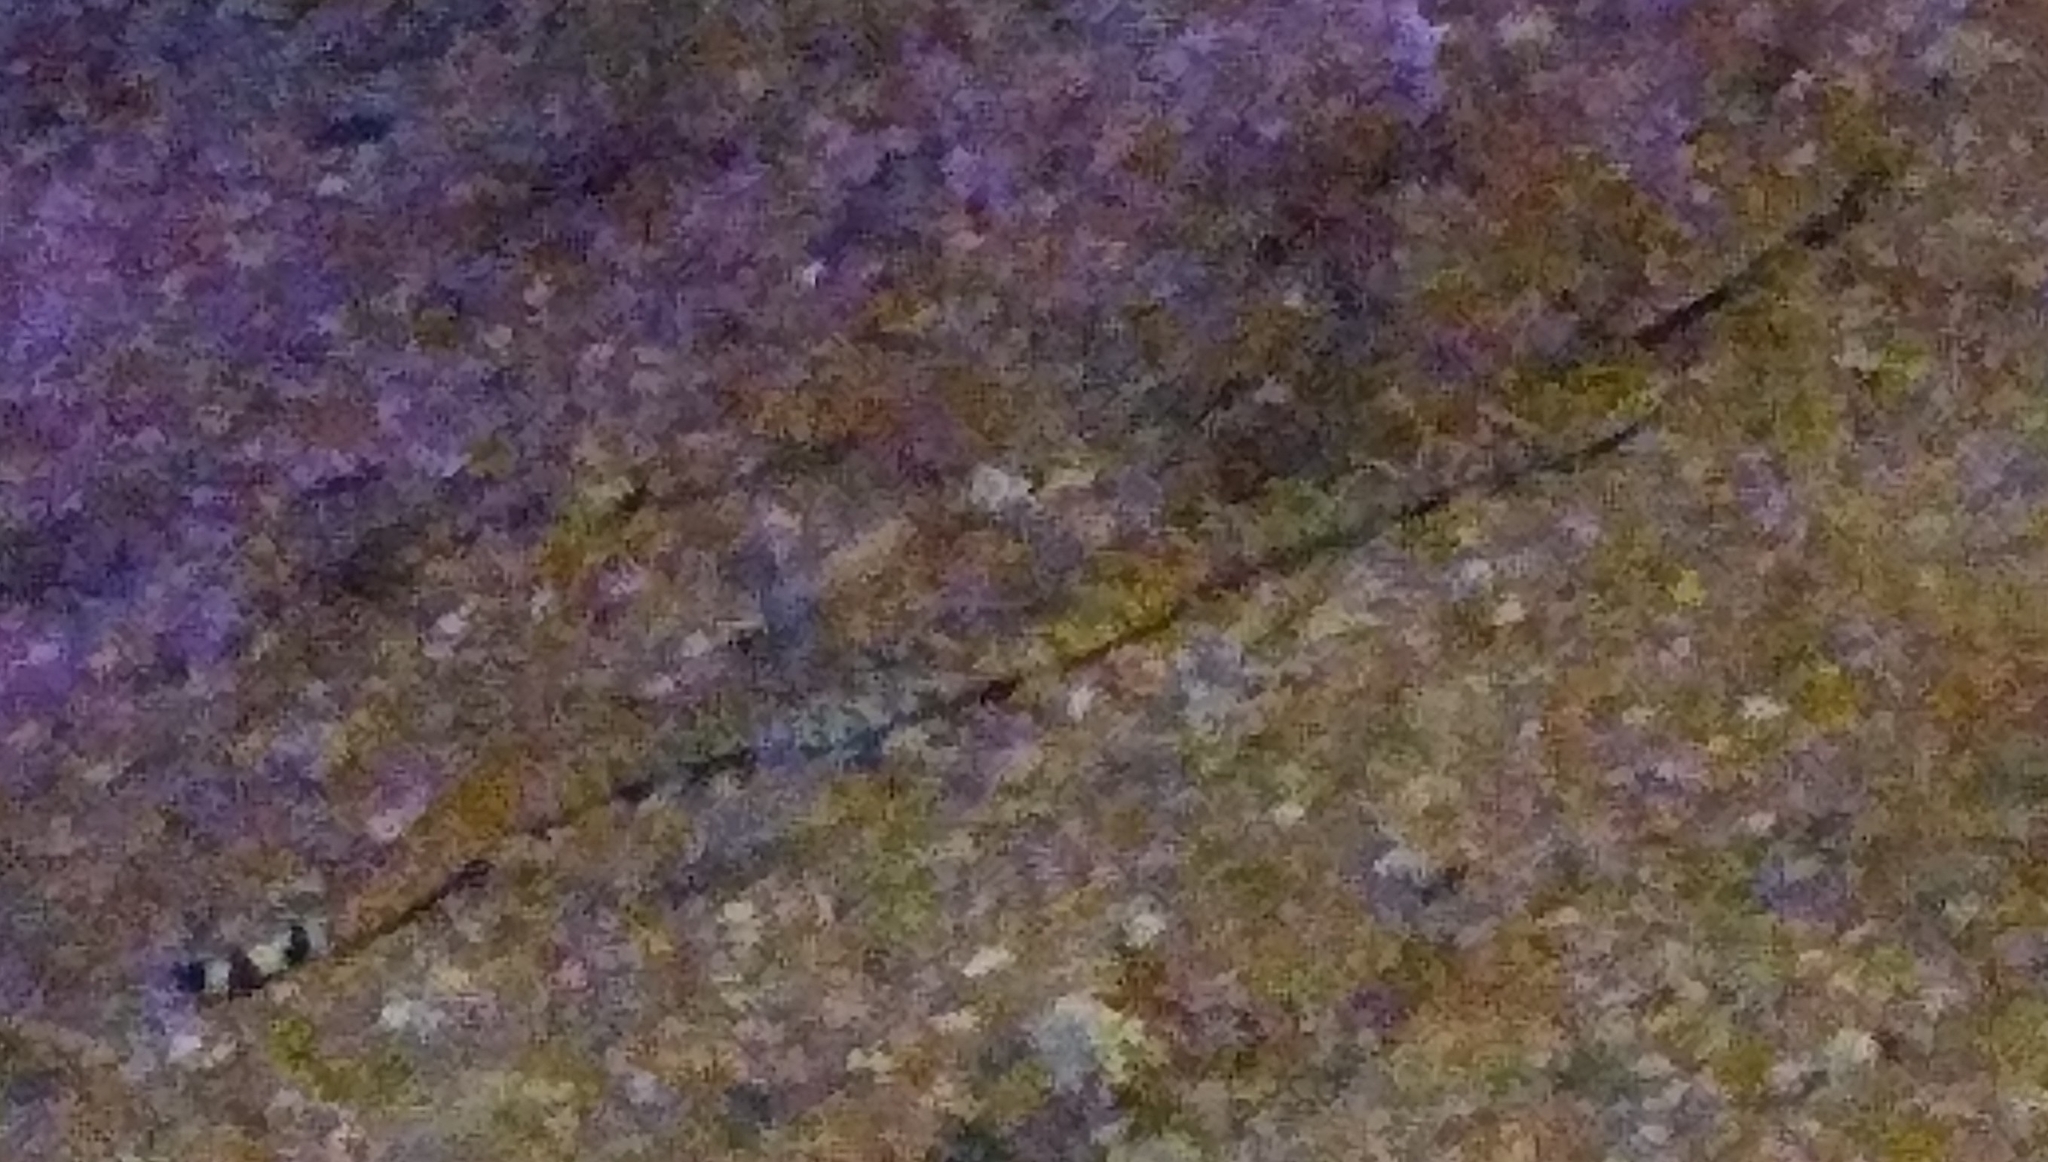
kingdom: Animalia
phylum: Chordata
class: Squamata
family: Viperidae
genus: Crotalus
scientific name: Crotalus atrox
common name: Western diamond-backed rattlesnake
